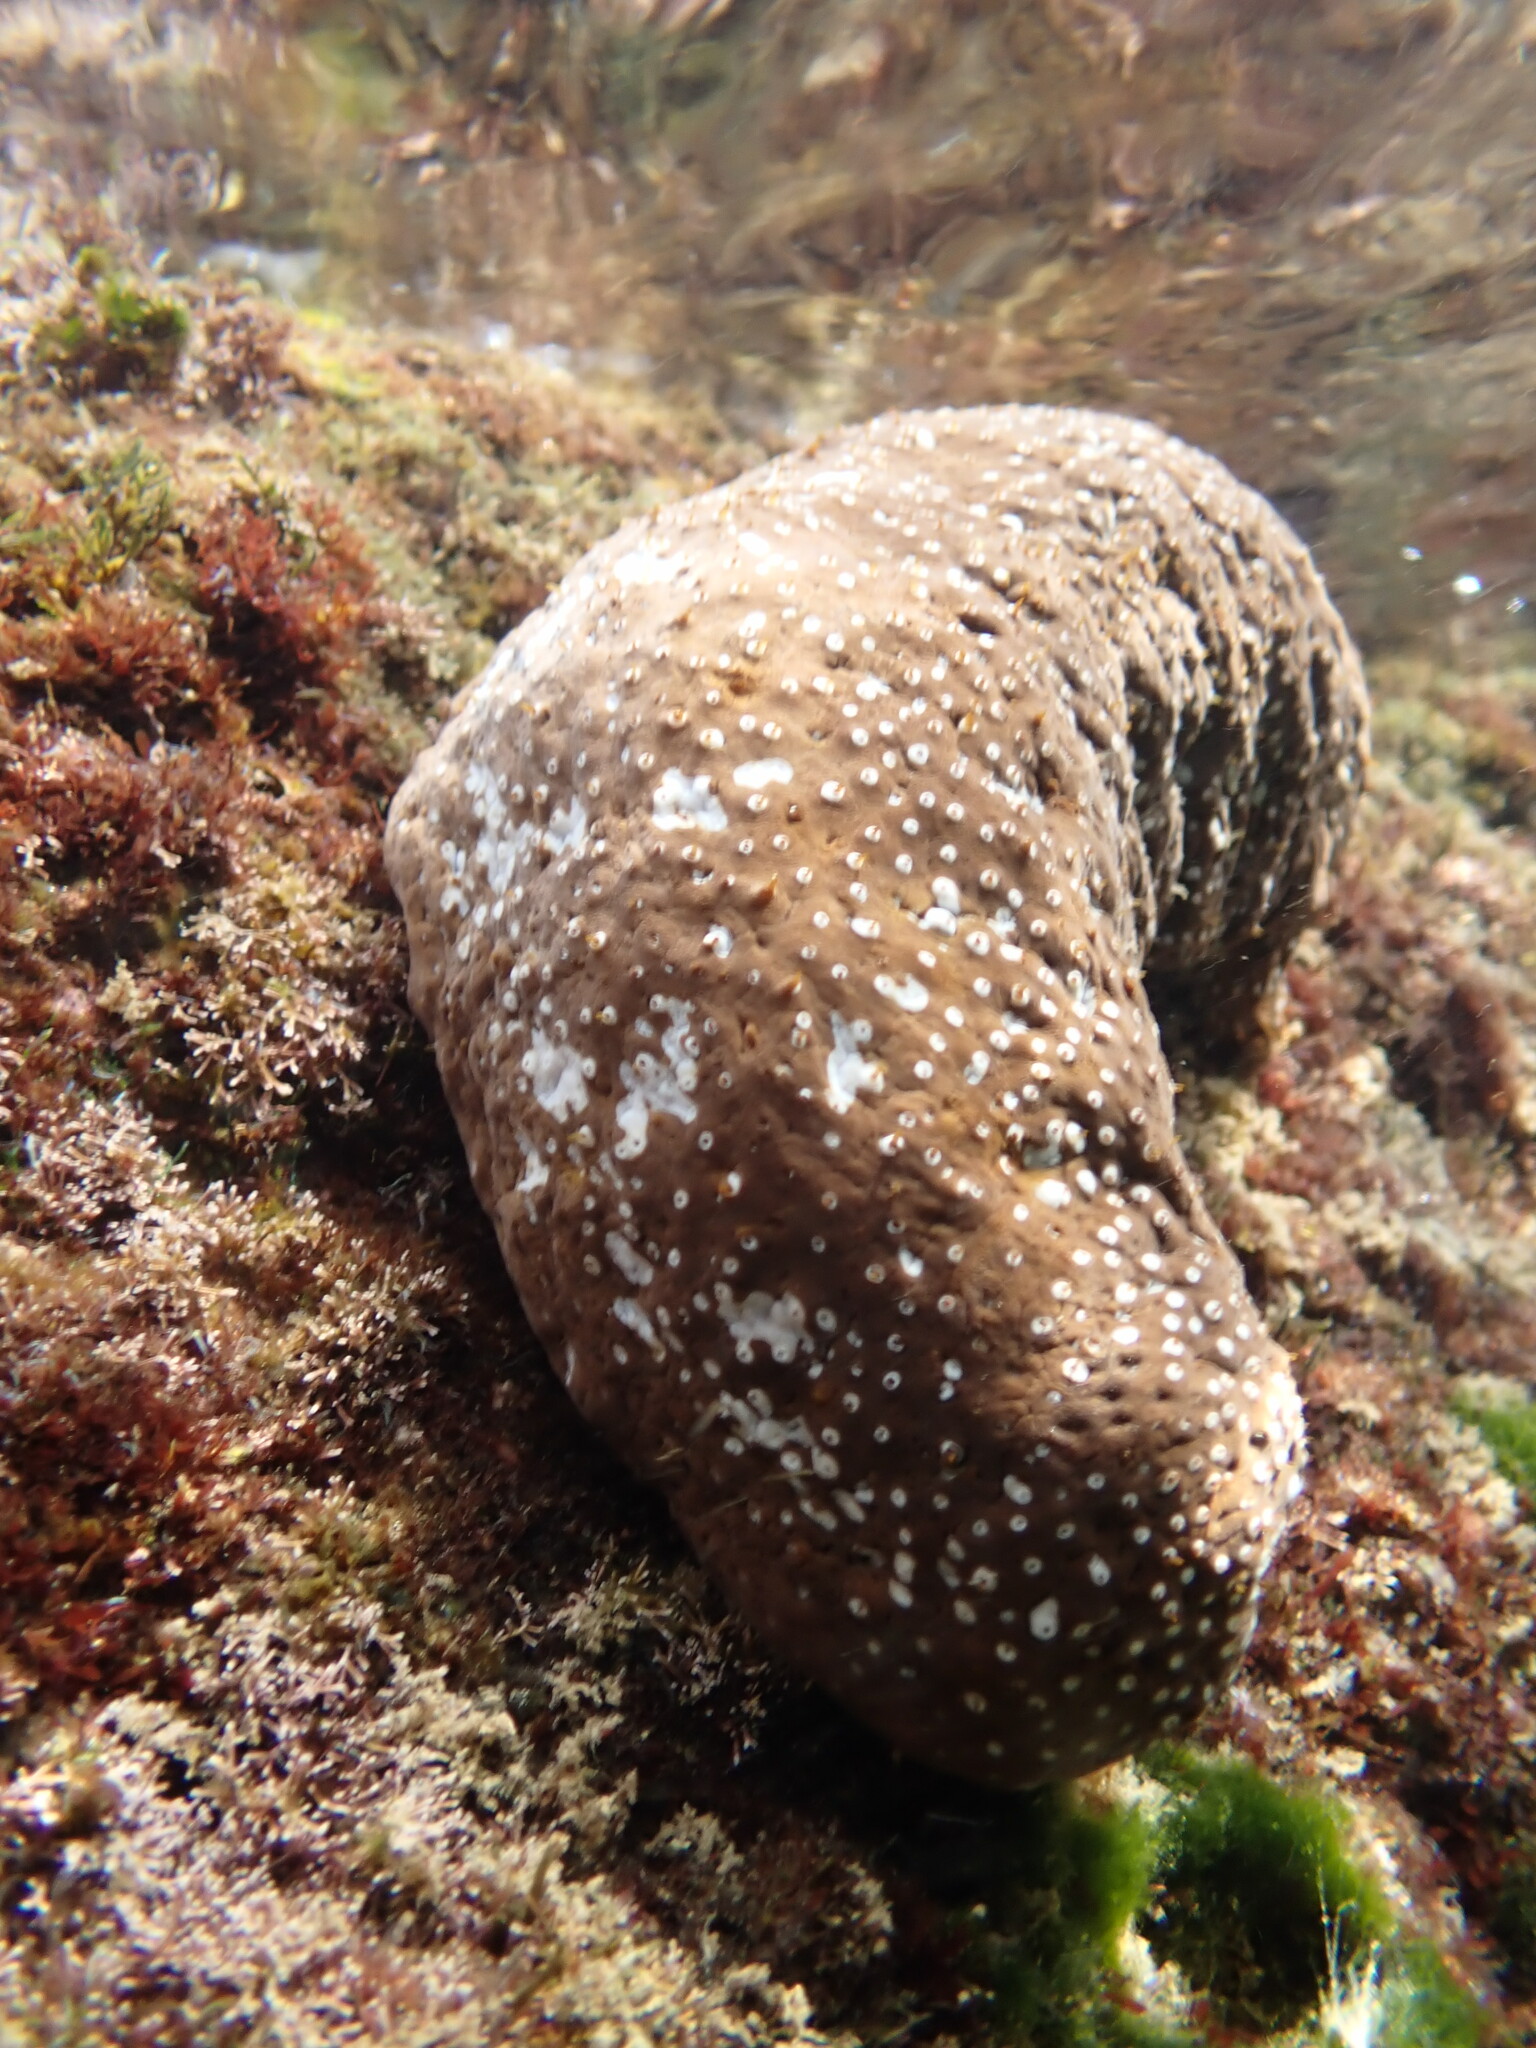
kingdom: Animalia
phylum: Echinodermata
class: Holothuroidea
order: Holothuriida
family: Holothuriidae
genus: Actinopyga
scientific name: Actinopyga varians
